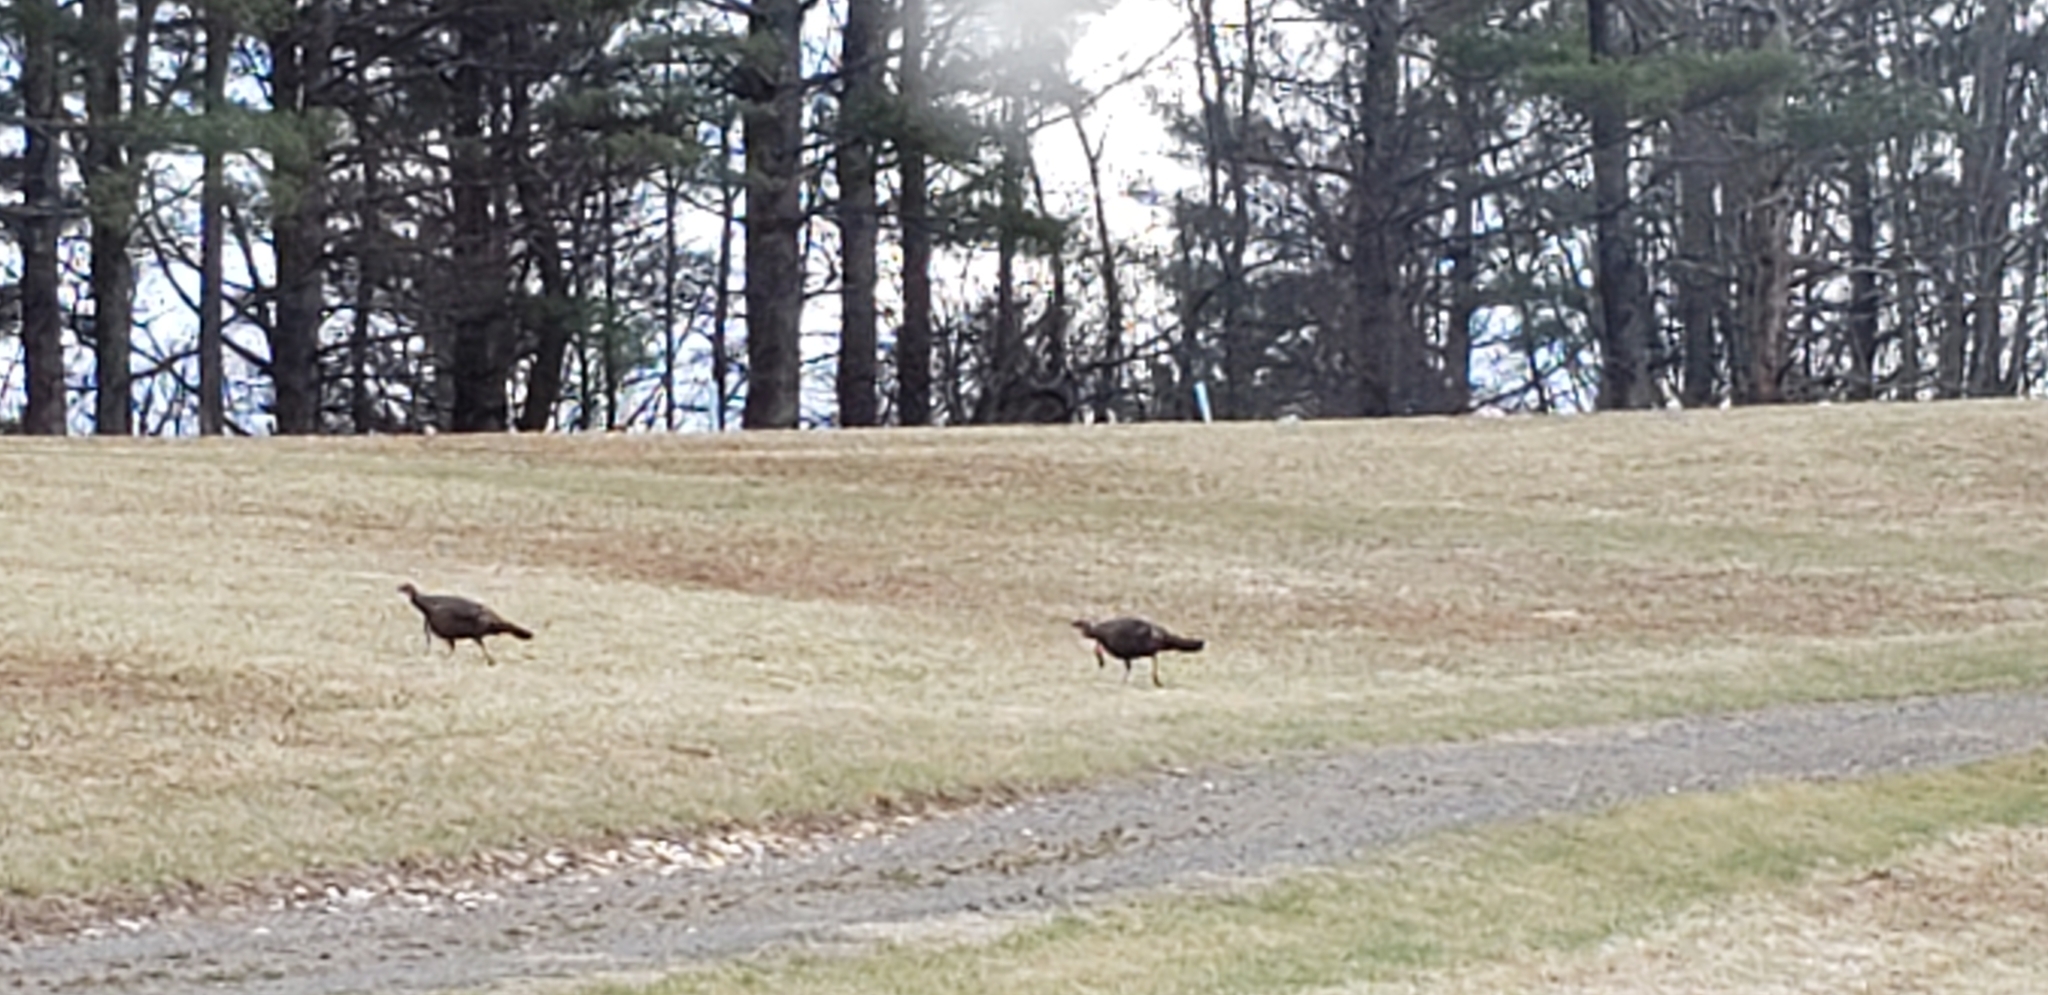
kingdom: Animalia
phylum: Chordata
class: Aves
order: Galliformes
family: Phasianidae
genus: Meleagris
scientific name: Meleagris gallopavo
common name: Wild turkey
